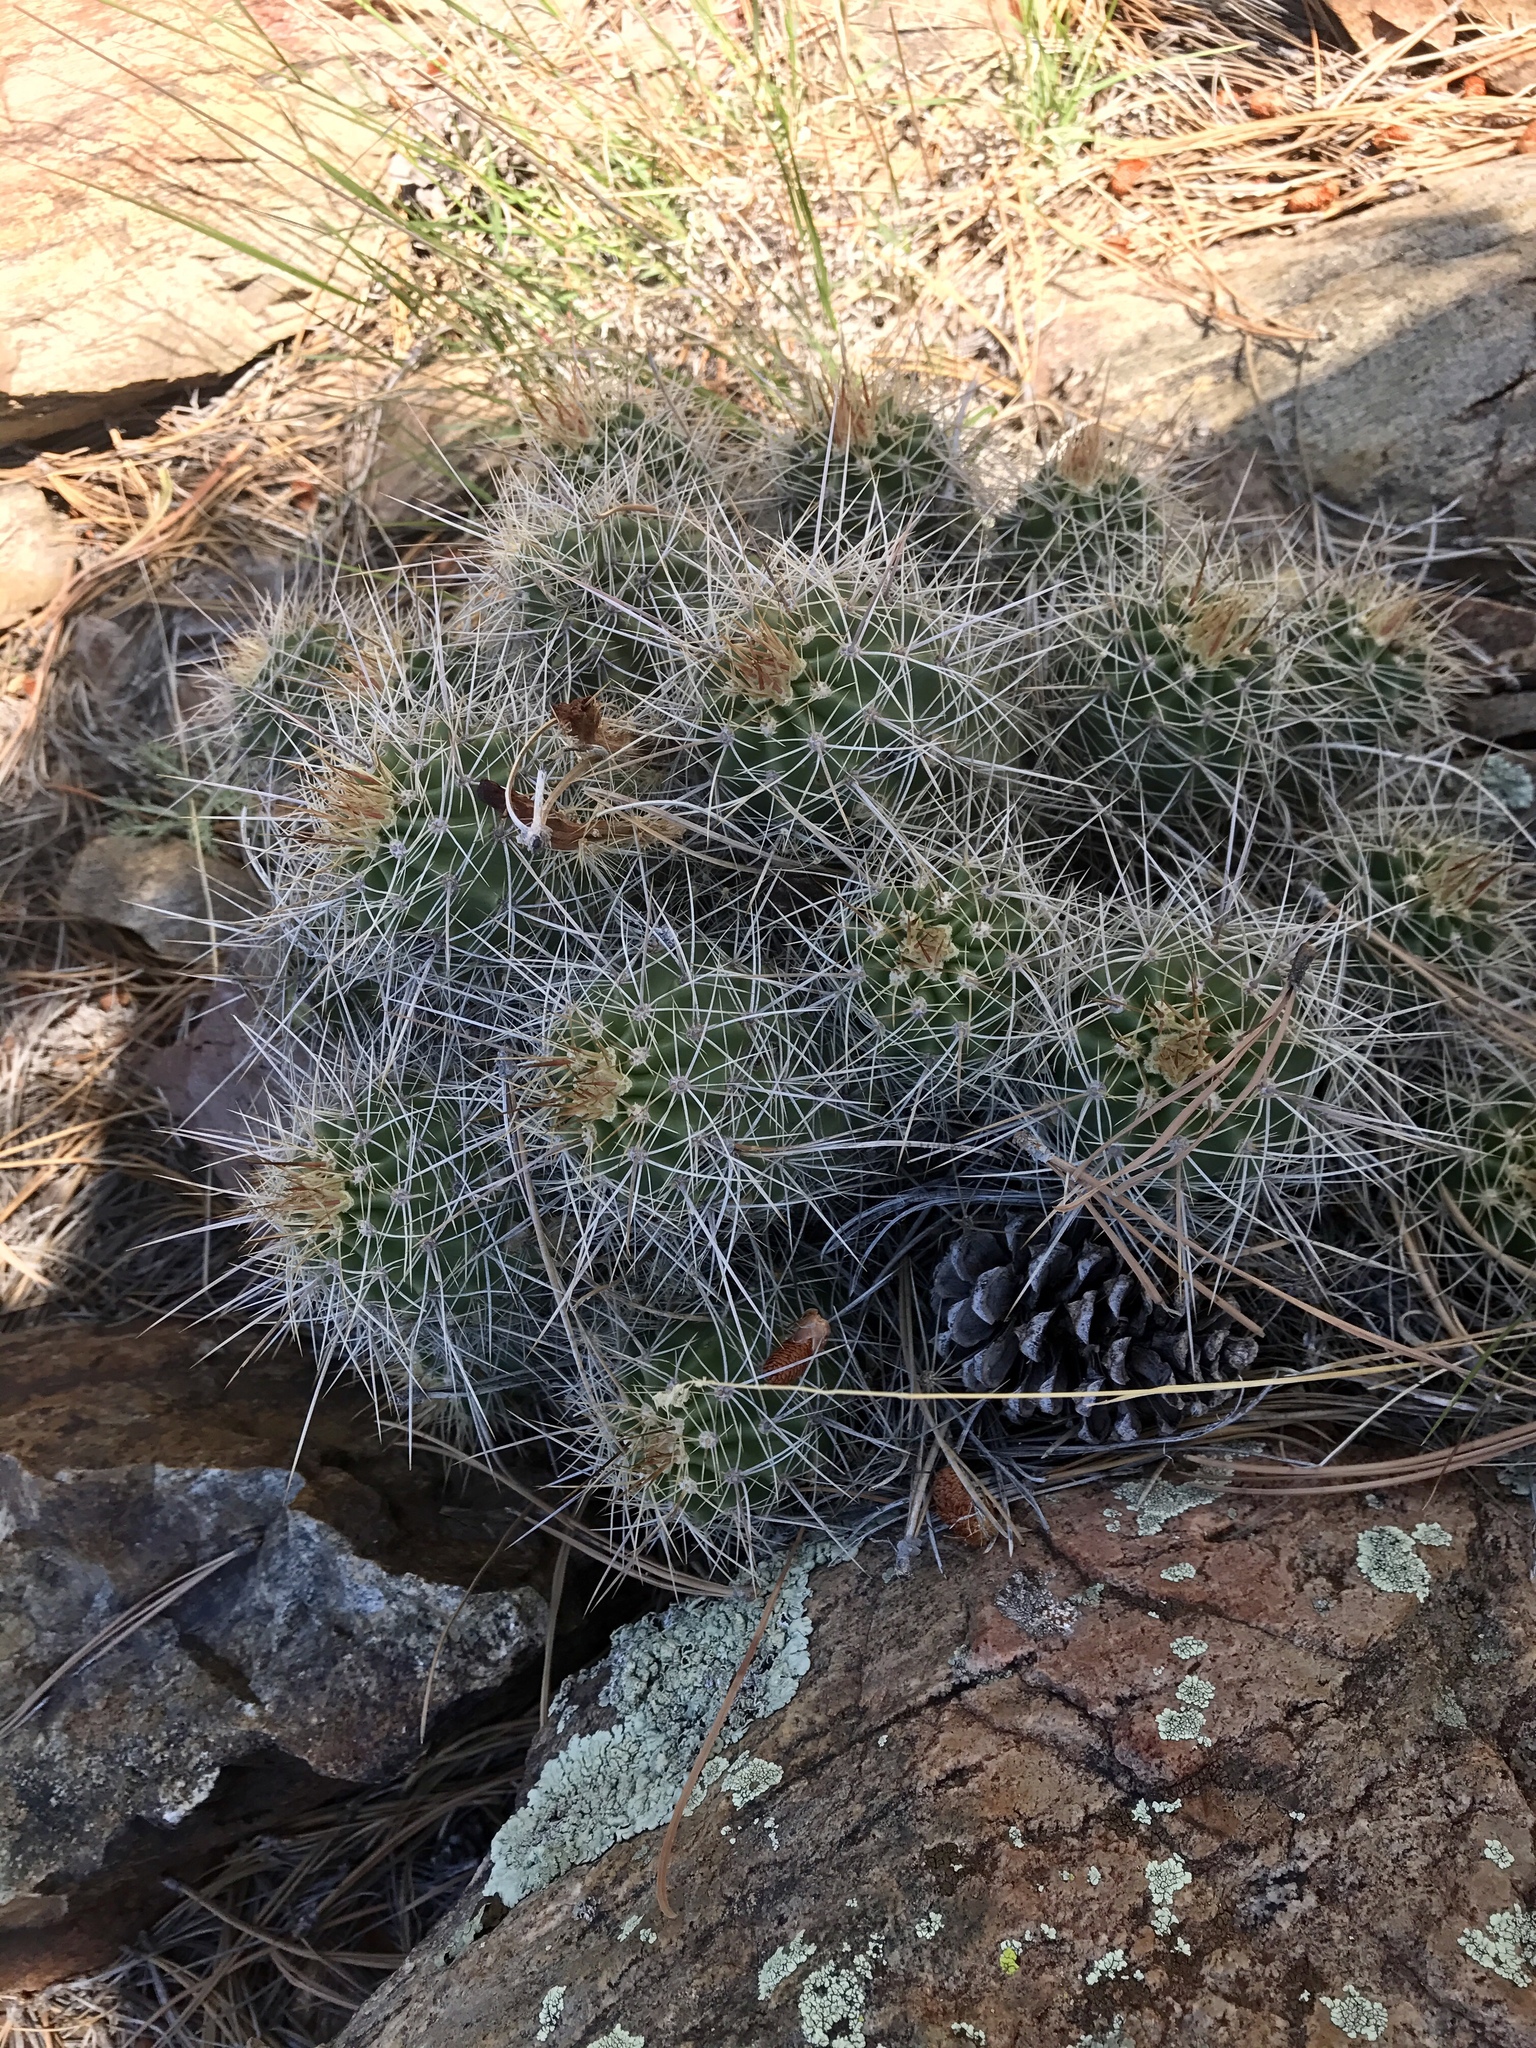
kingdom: Plantae
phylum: Tracheophyta
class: Magnoliopsida
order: Caryophyllales
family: Cactaceae
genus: Echinocereus
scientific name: Echinocereus bakeri
